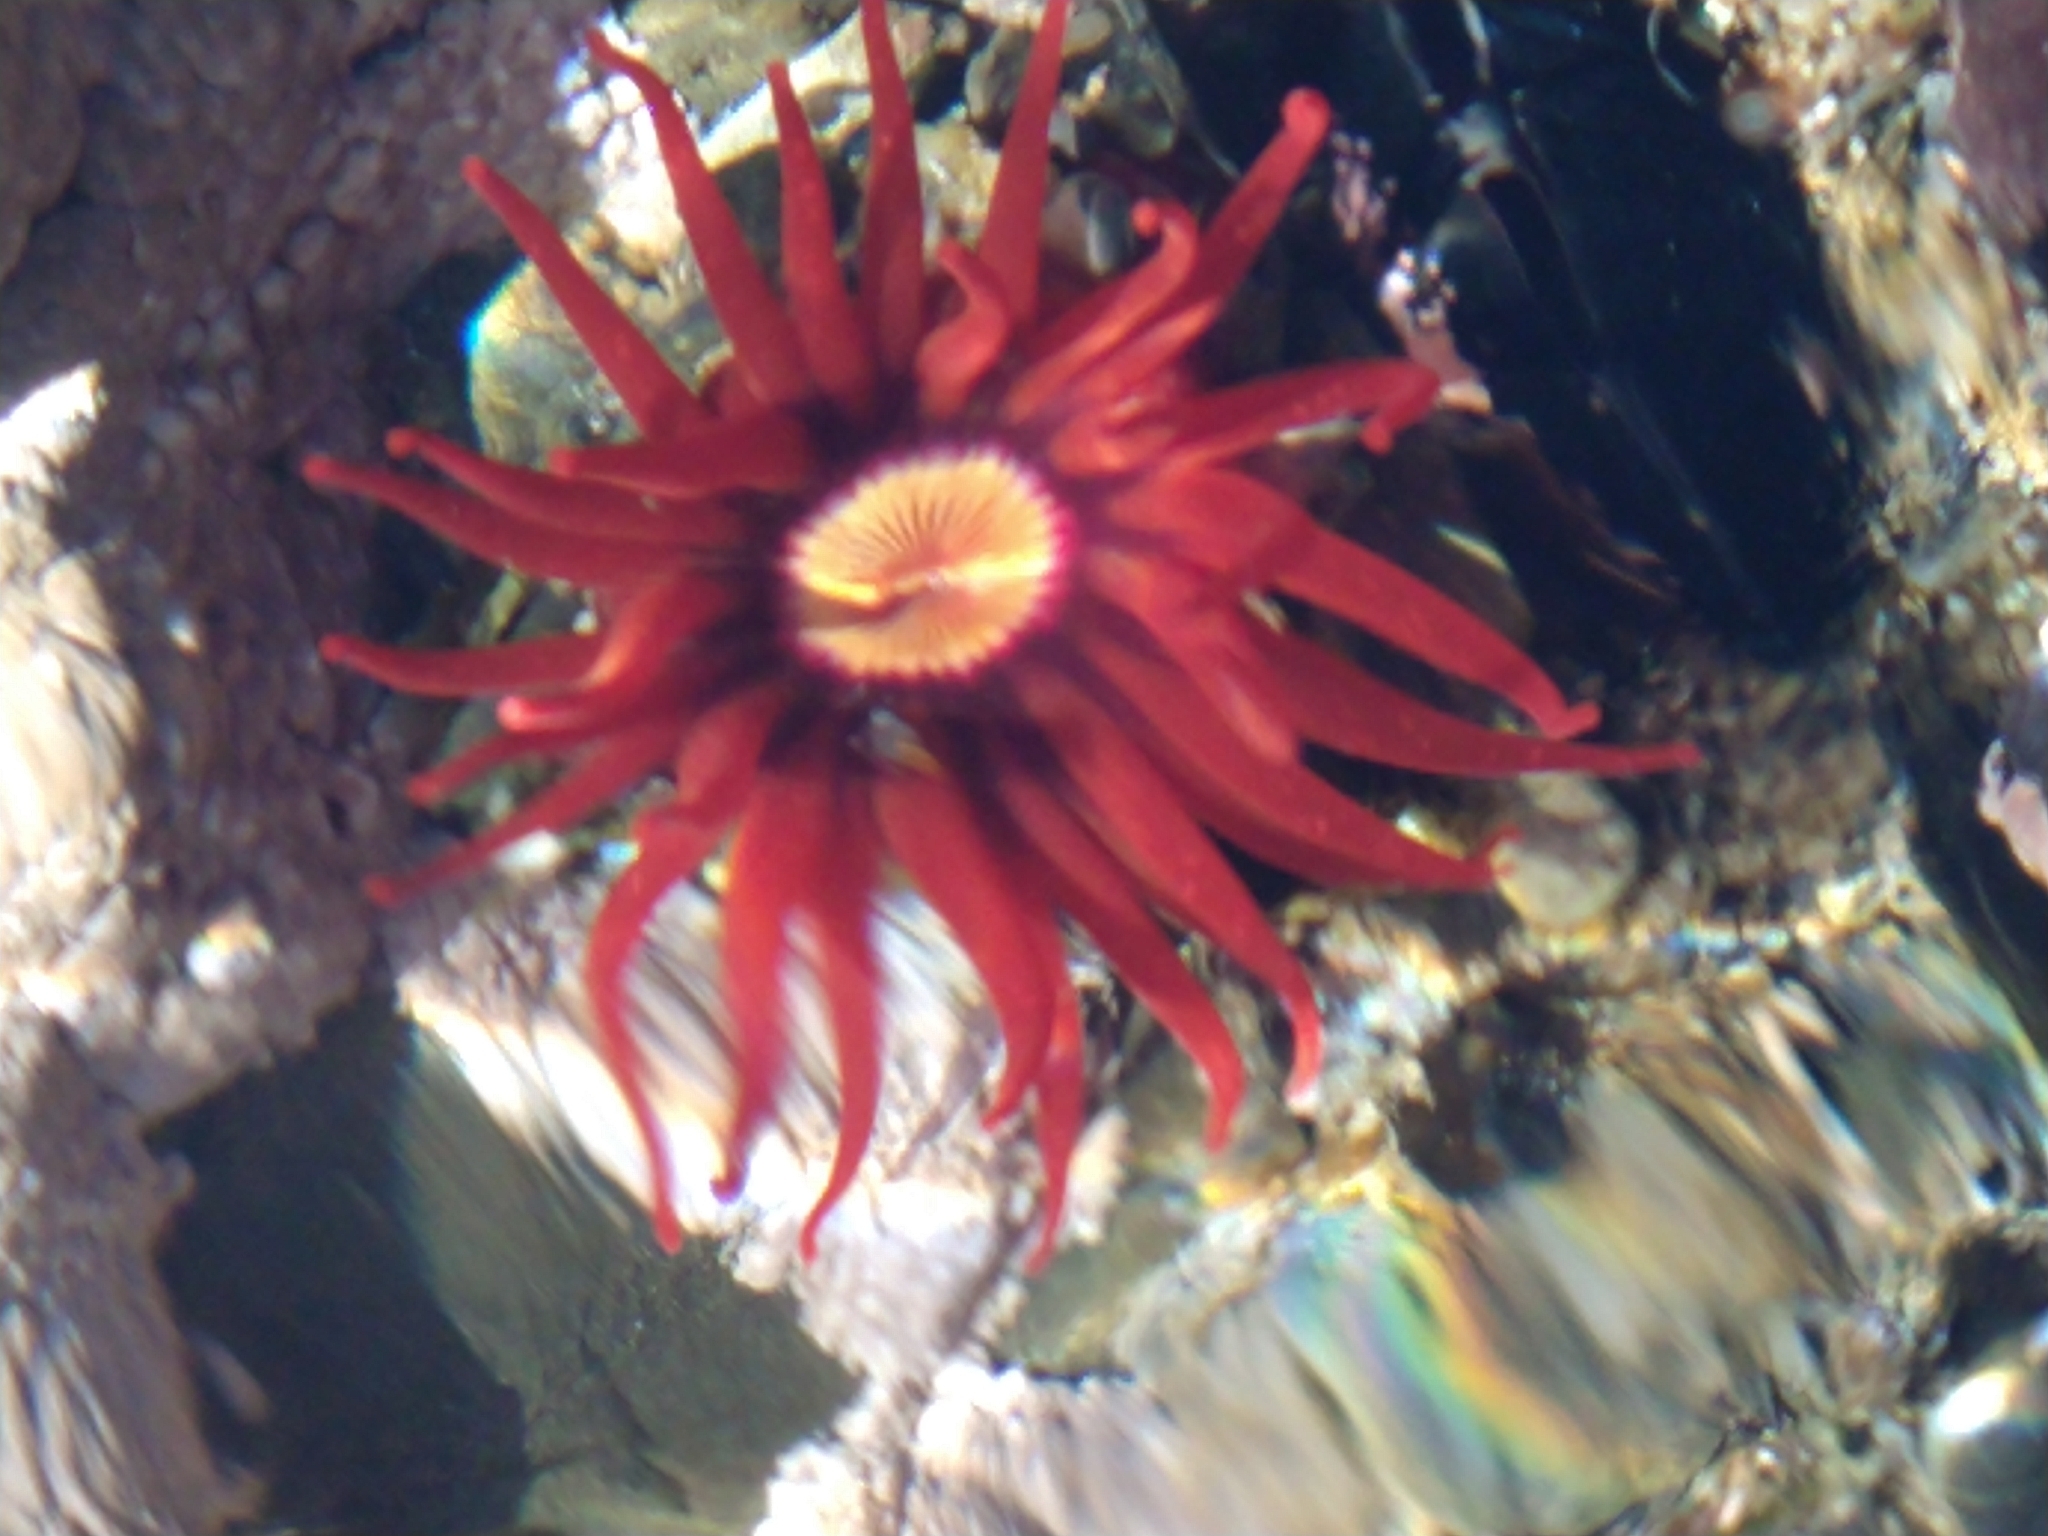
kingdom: Animalia
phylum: Cnidaria
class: Anthozoa
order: Actiniaria
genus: Paractis
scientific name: Paractis impatiens
